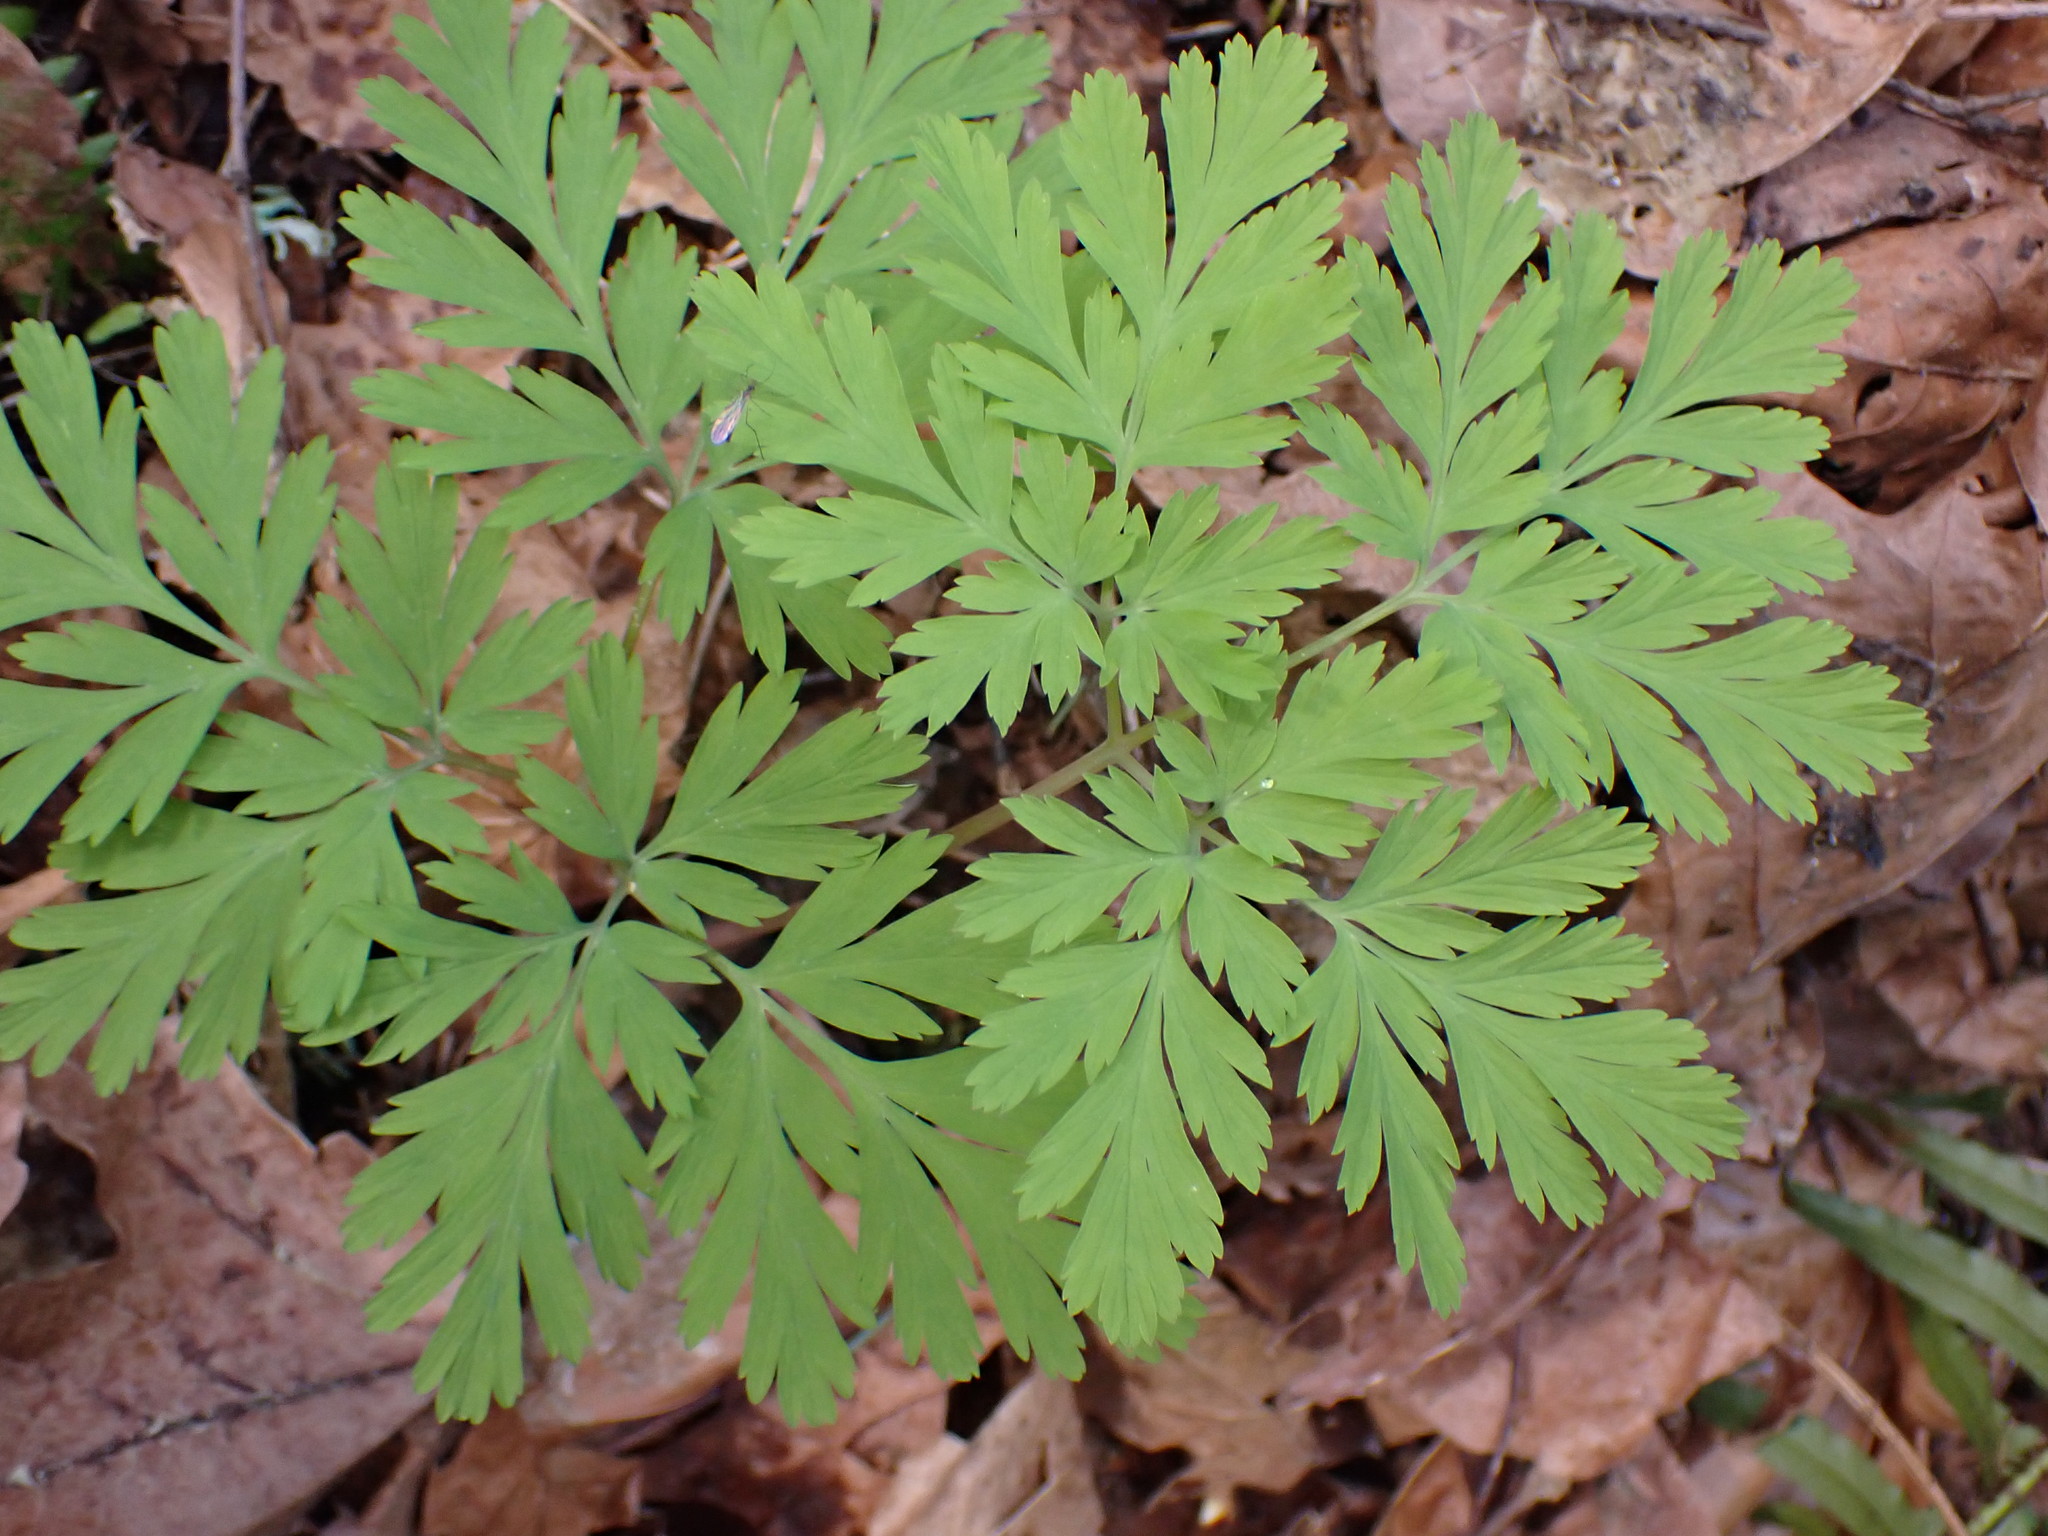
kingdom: Plantae
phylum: Tracheophyta
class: Magnoliopsida
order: Ranunculales
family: Papaveraceae
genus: Dicentra
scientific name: Dicentra formosa
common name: Bleeding-heart
